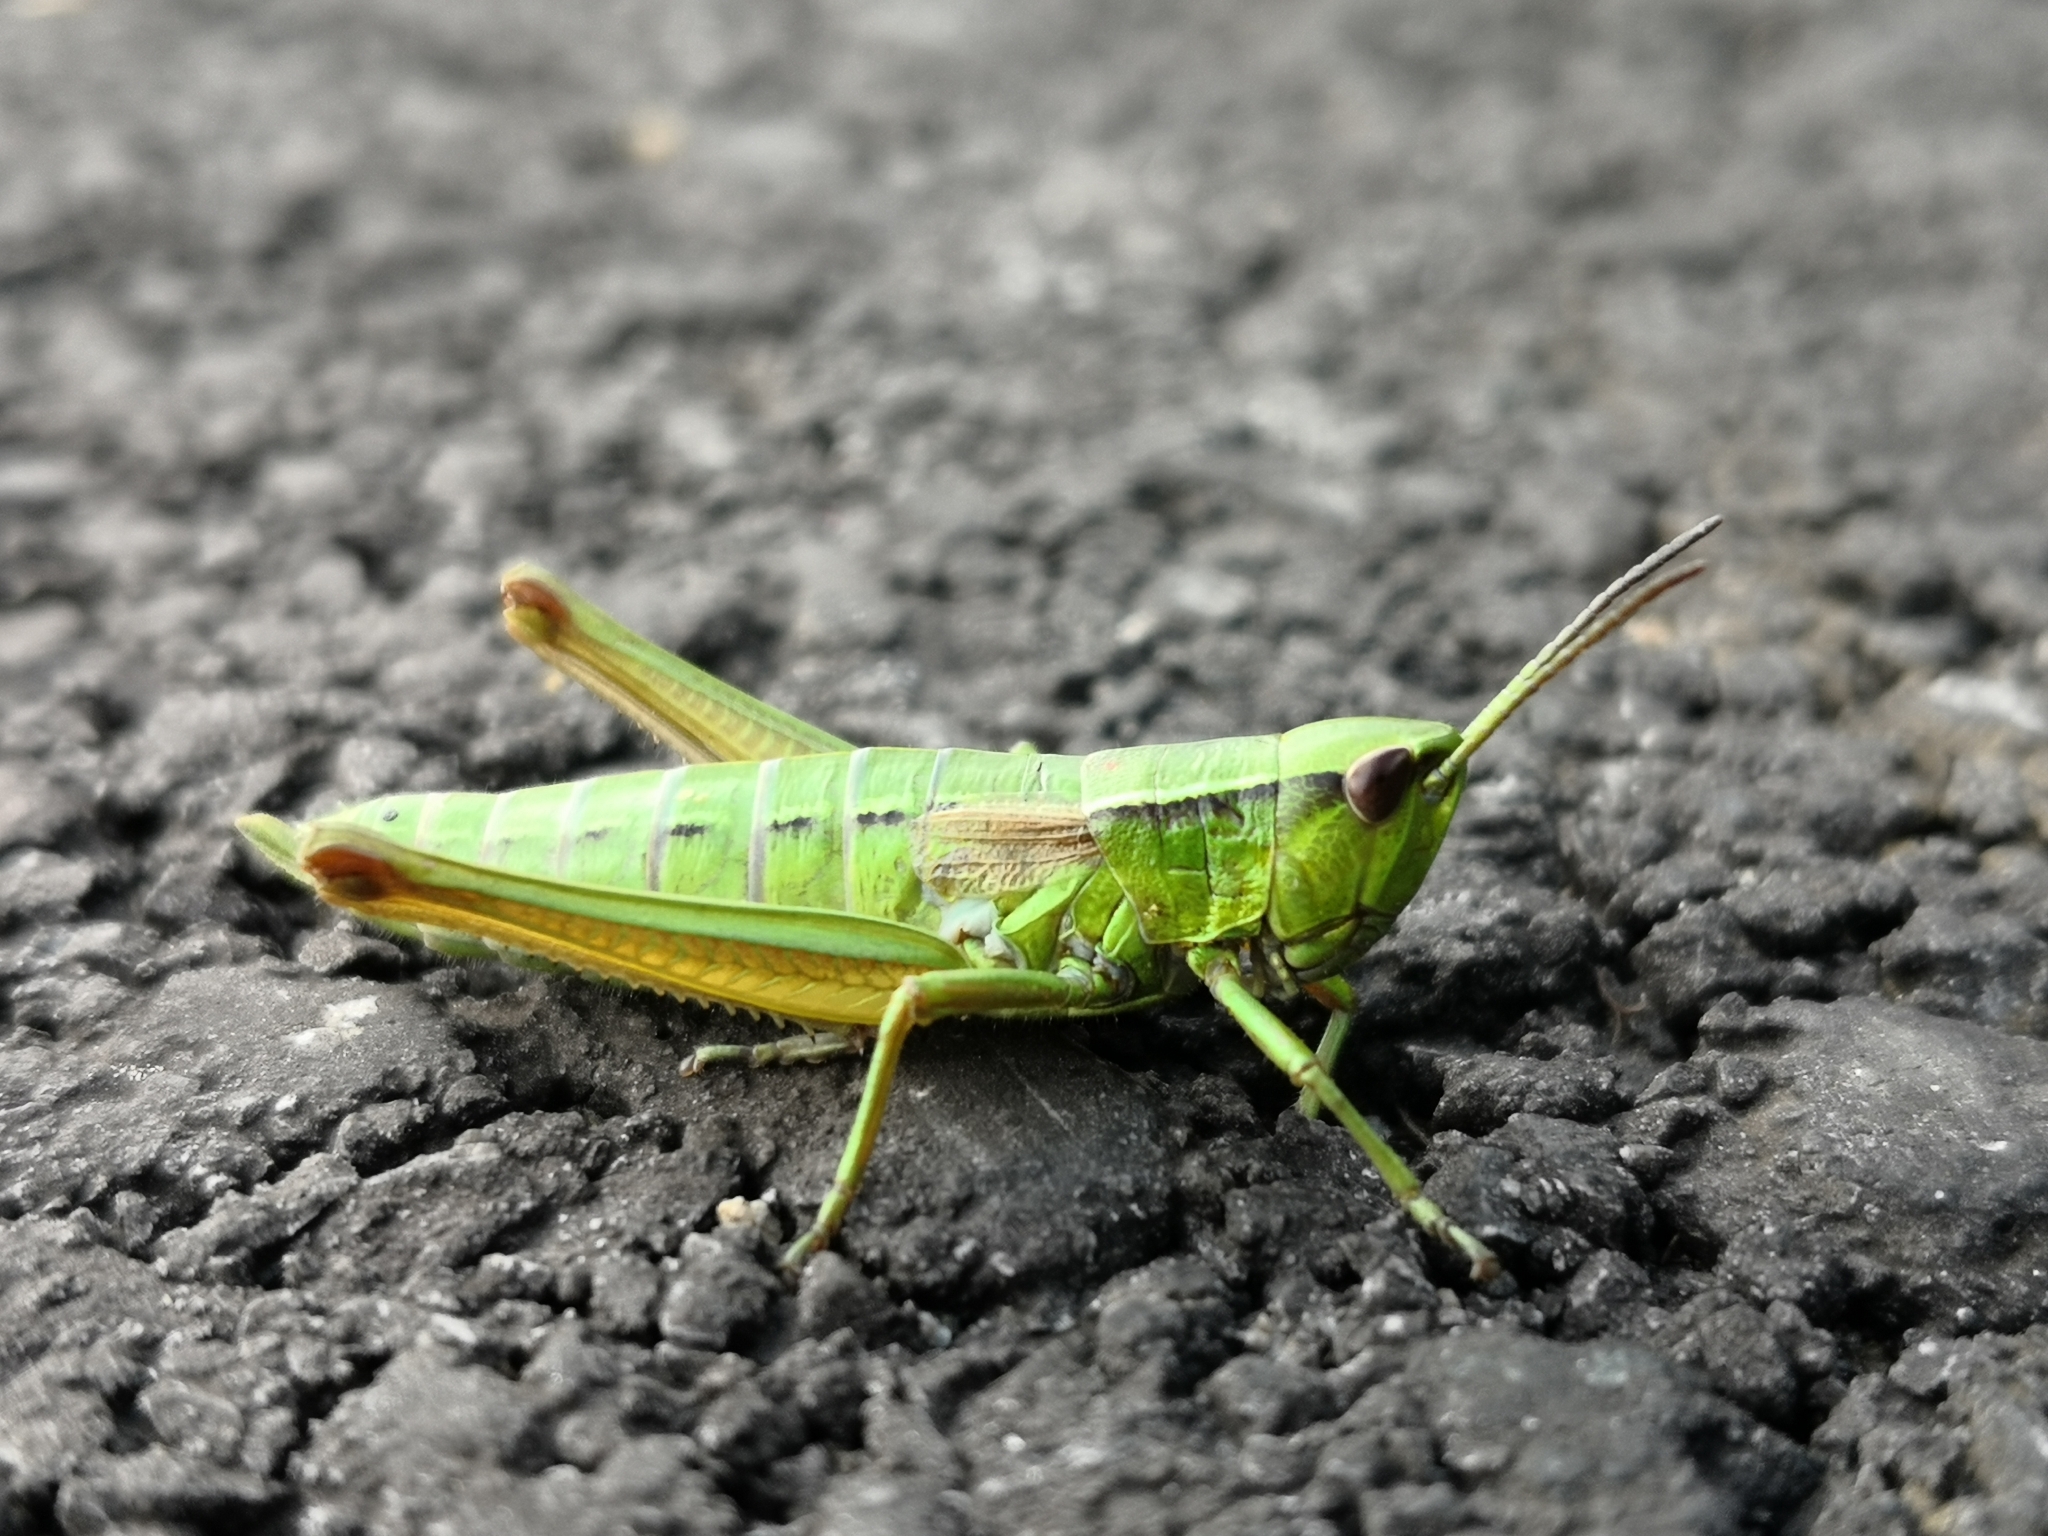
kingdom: Animalia
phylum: Arthropoda
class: Insecta
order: Orthoptera
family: Acrididae
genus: Euthystira
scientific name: Euthystira brachyptera
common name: Small gold grasshopper
